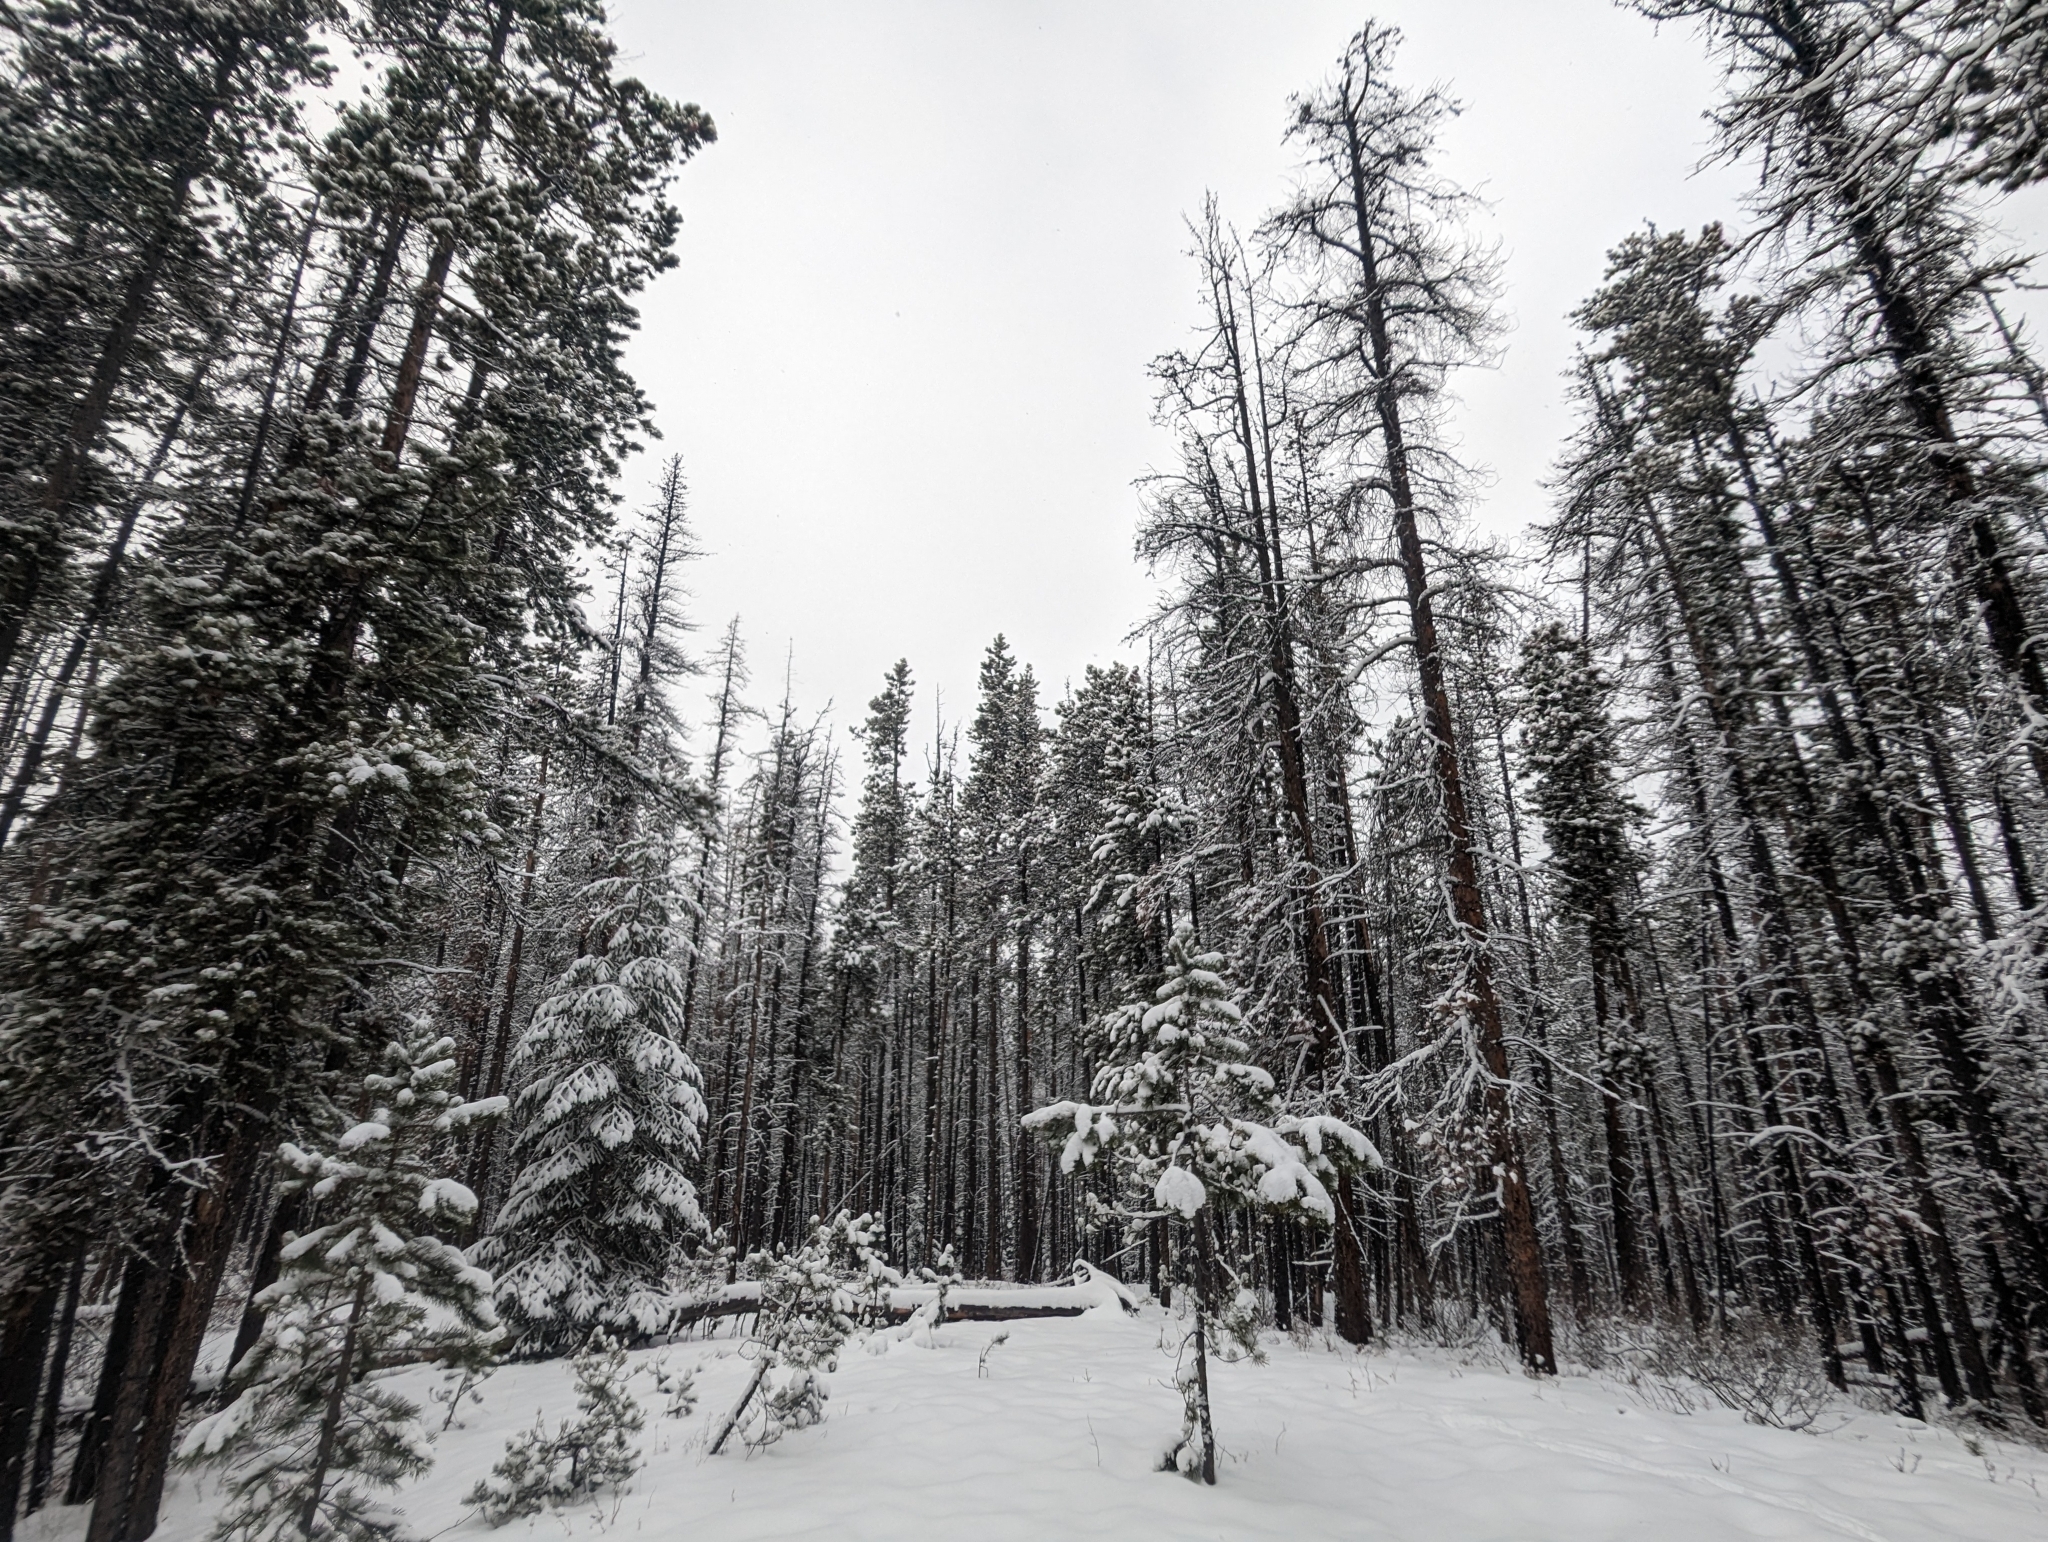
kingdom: Plantae
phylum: Tracheophyta
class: Pinopsida
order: Pinales
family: Pinaceae
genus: Pinus
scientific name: Pinus contorta
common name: Lodgepole pine
